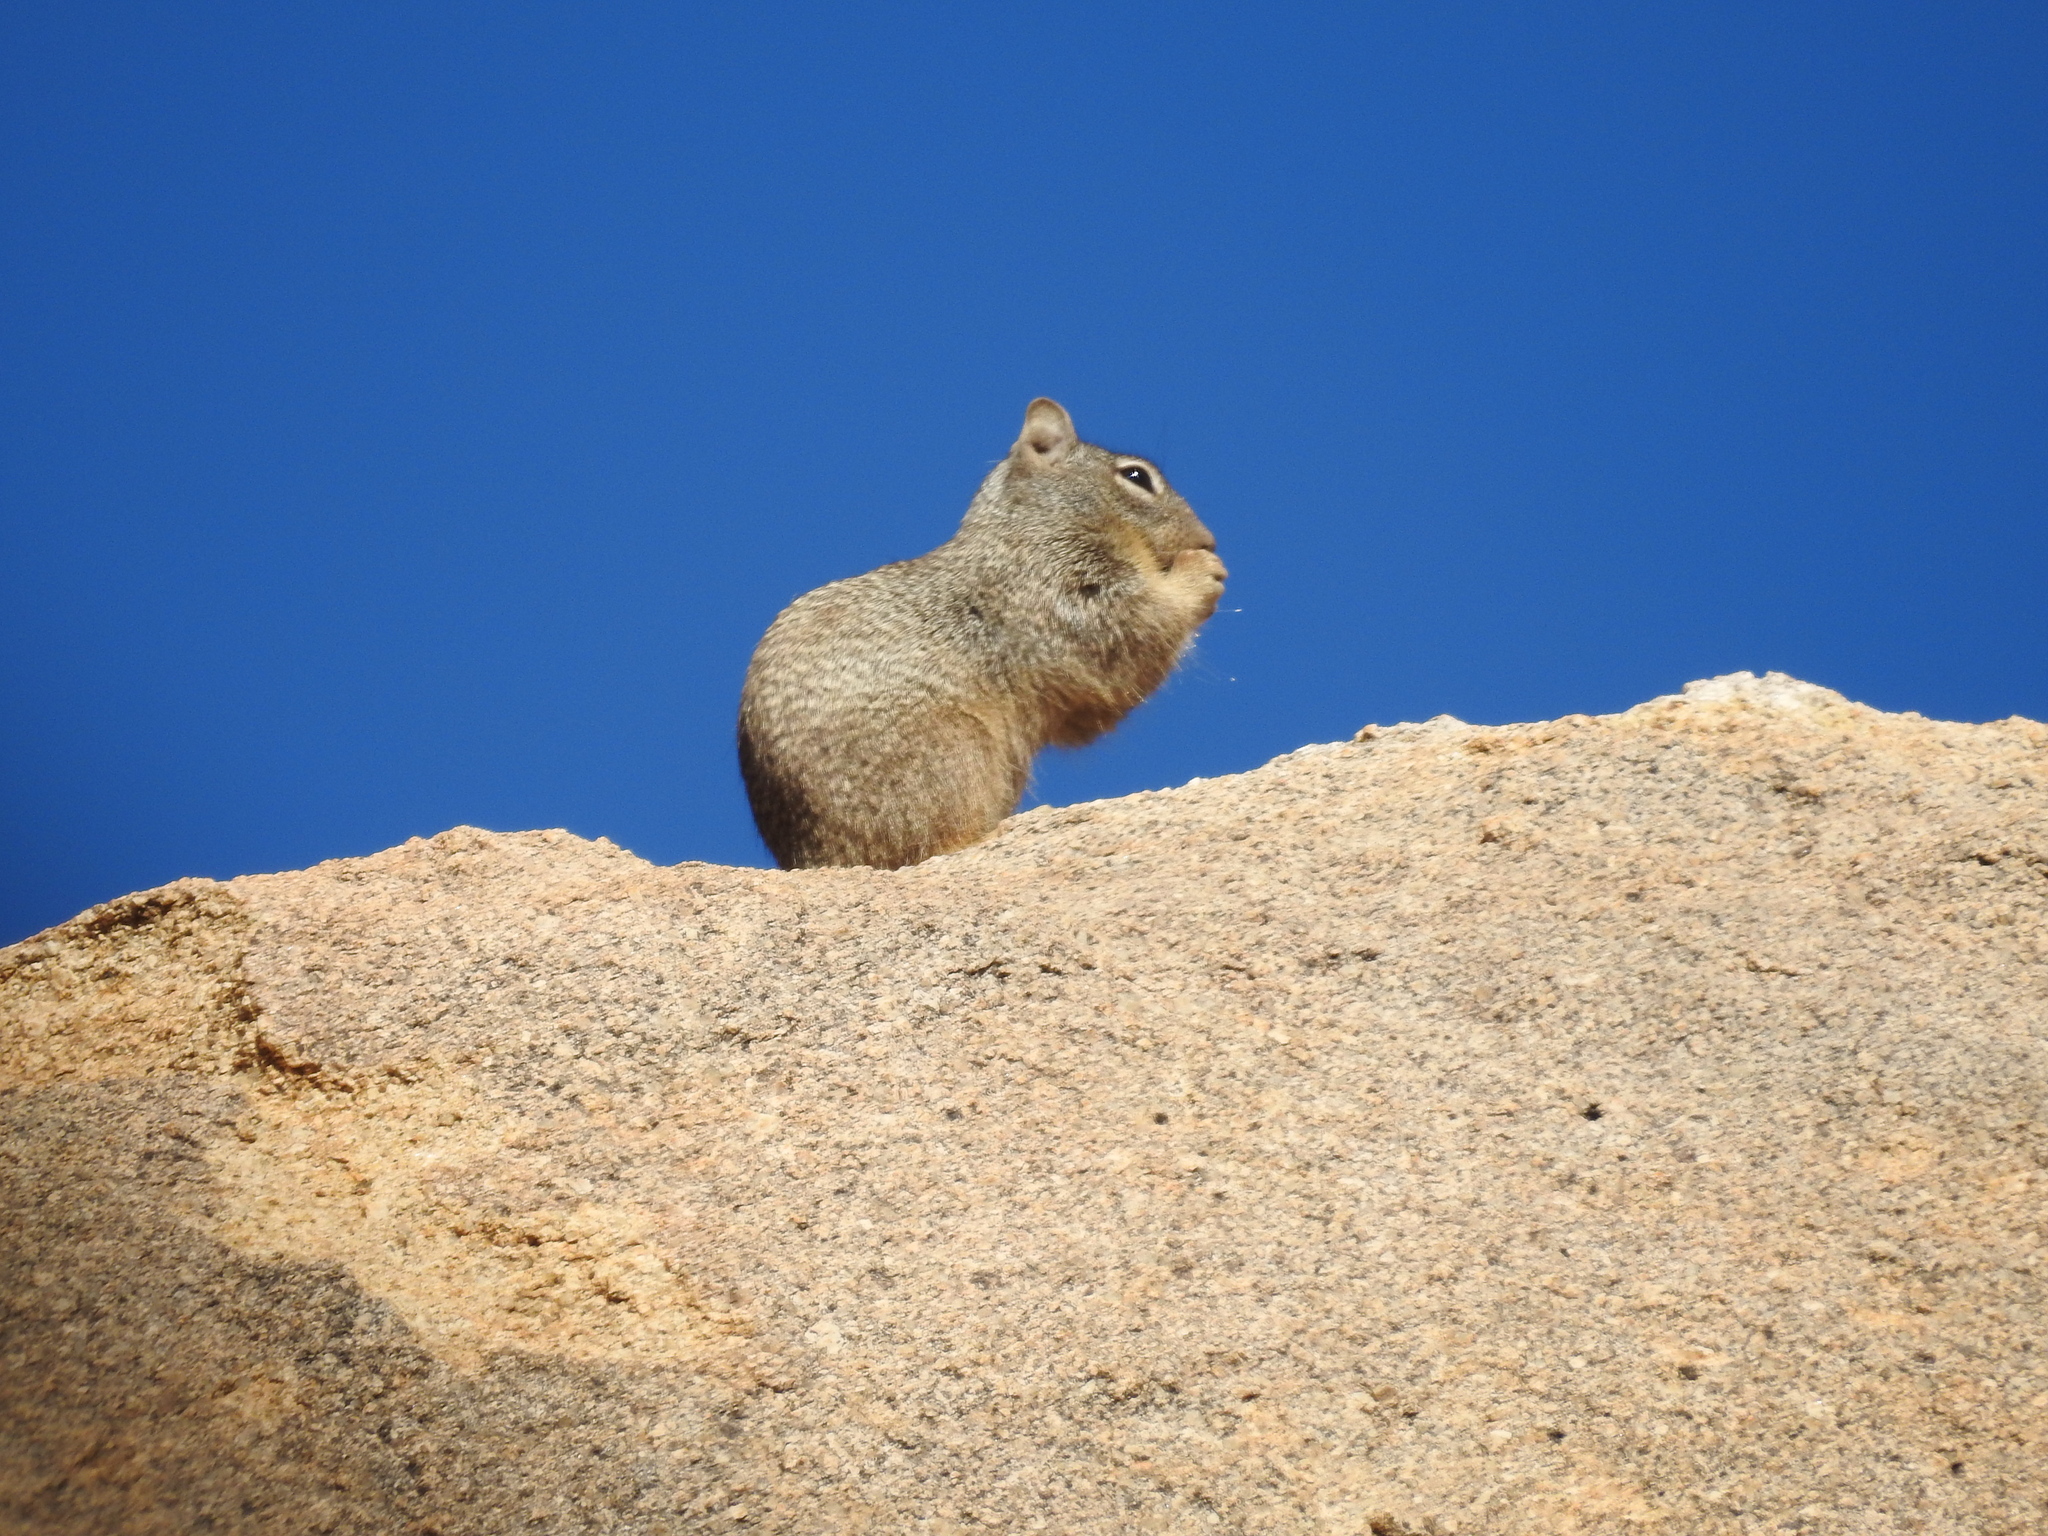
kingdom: Animalia
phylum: Chordata
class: Mammalia
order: Rodentia
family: Sciuridae
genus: Otospermophilus
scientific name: Otospermophilus variegatus
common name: Rock squirrel
